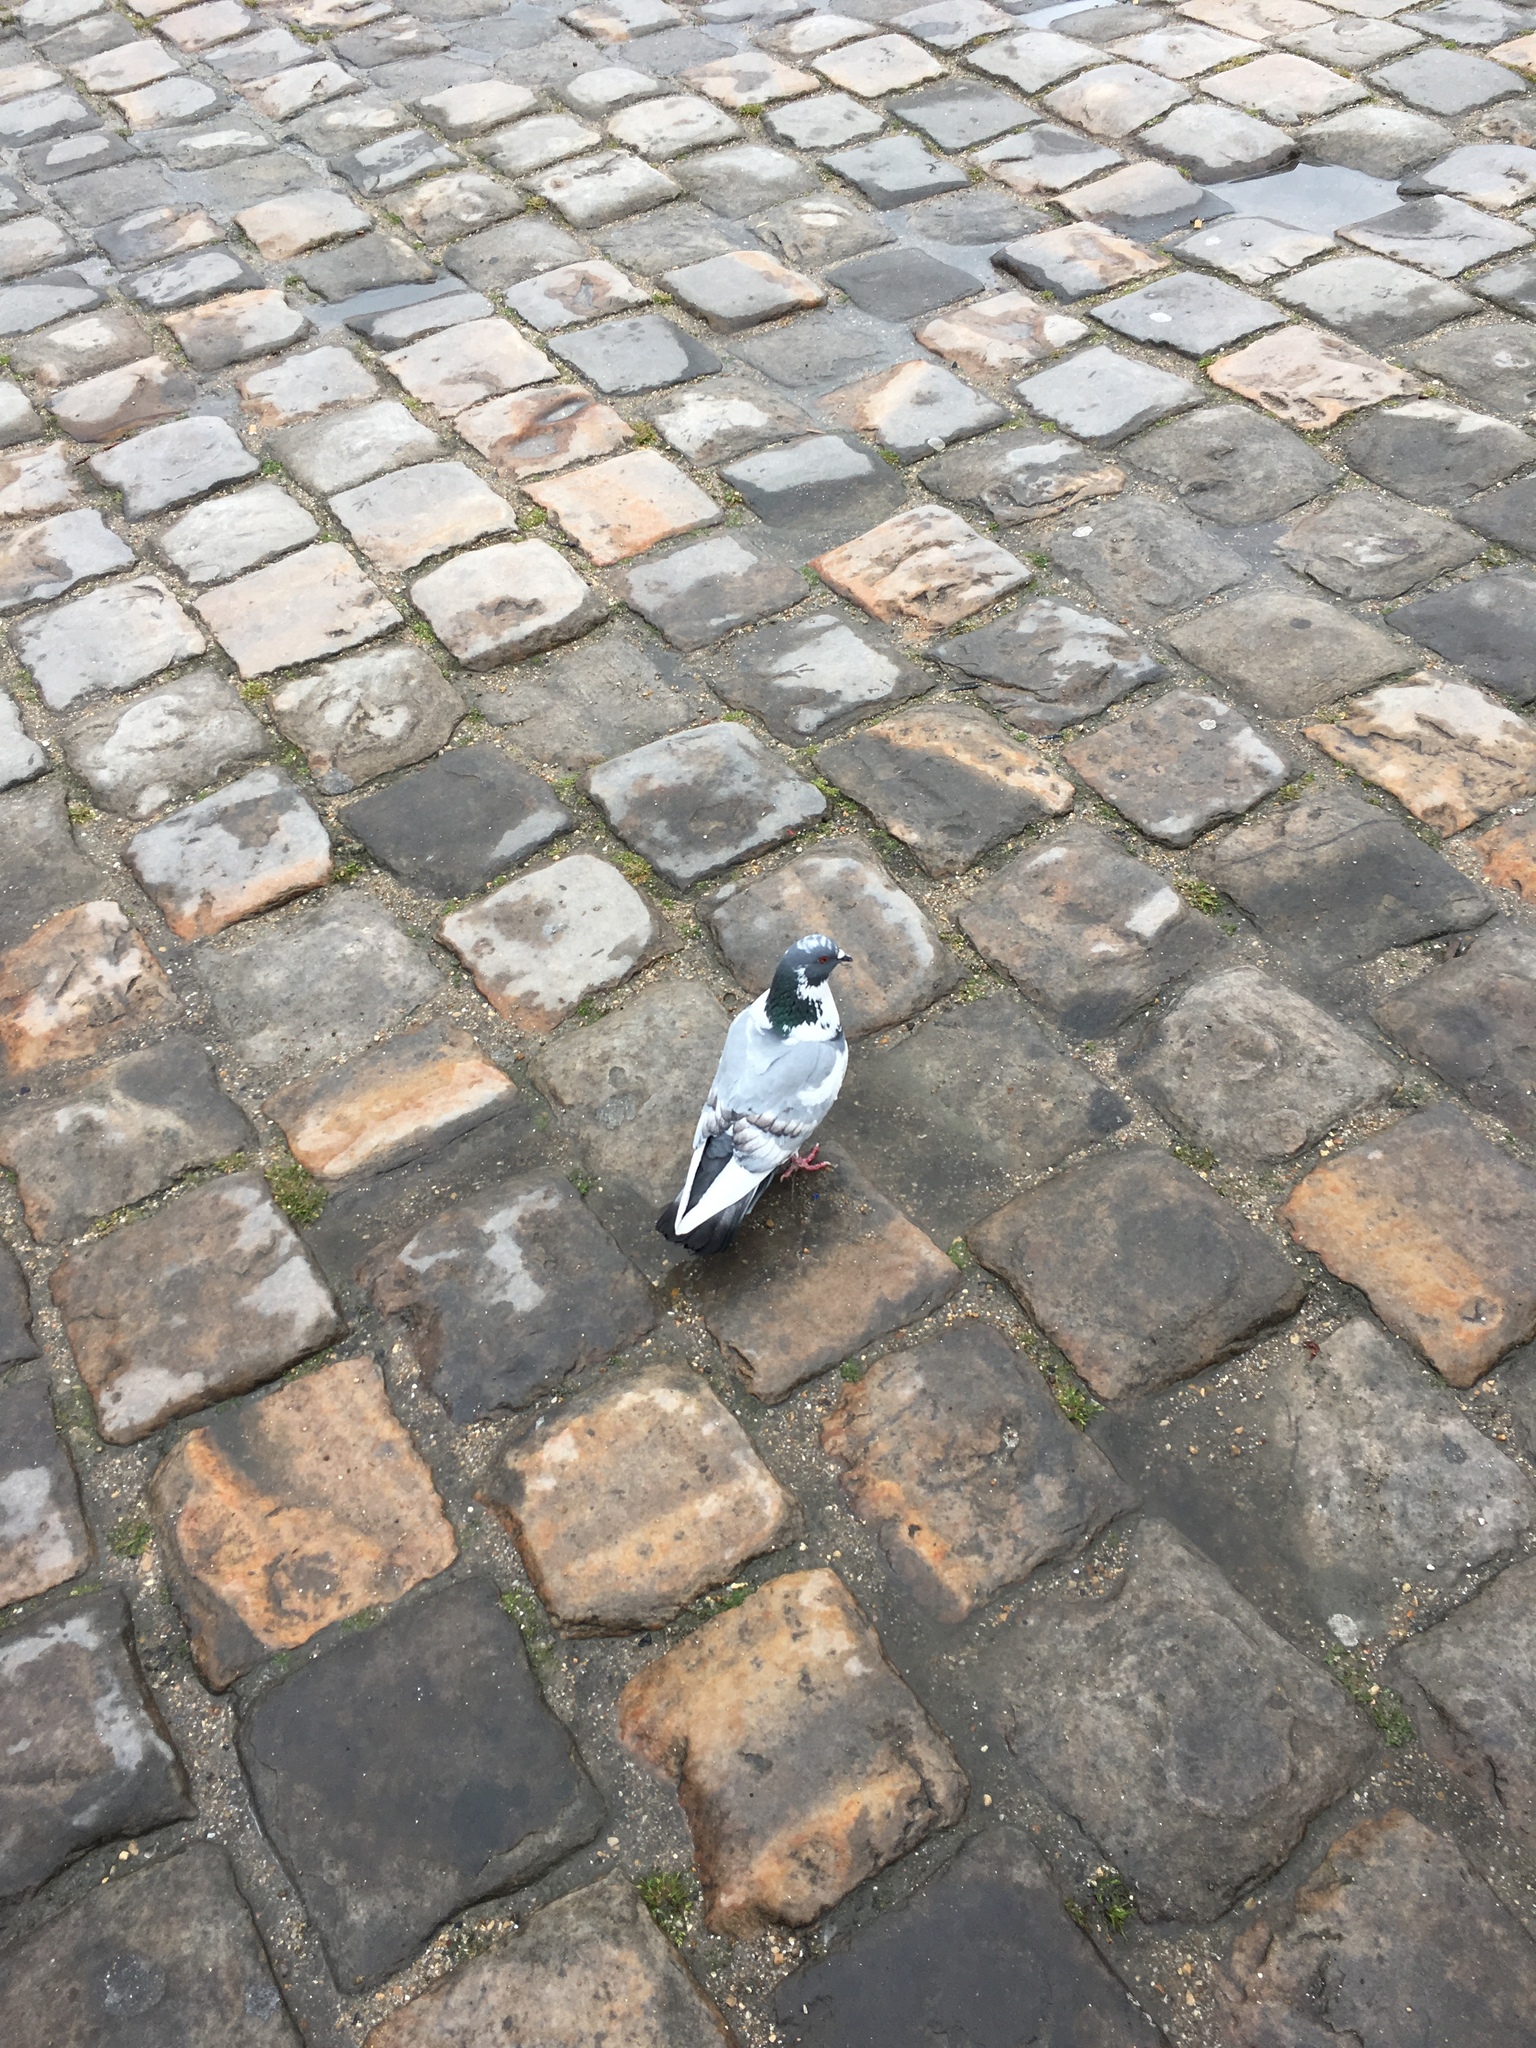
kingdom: Animalia
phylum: Chordata
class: Aves
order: Columbiformes
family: Columbidae
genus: Columba
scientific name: Columba livia
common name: Rock pigeon
